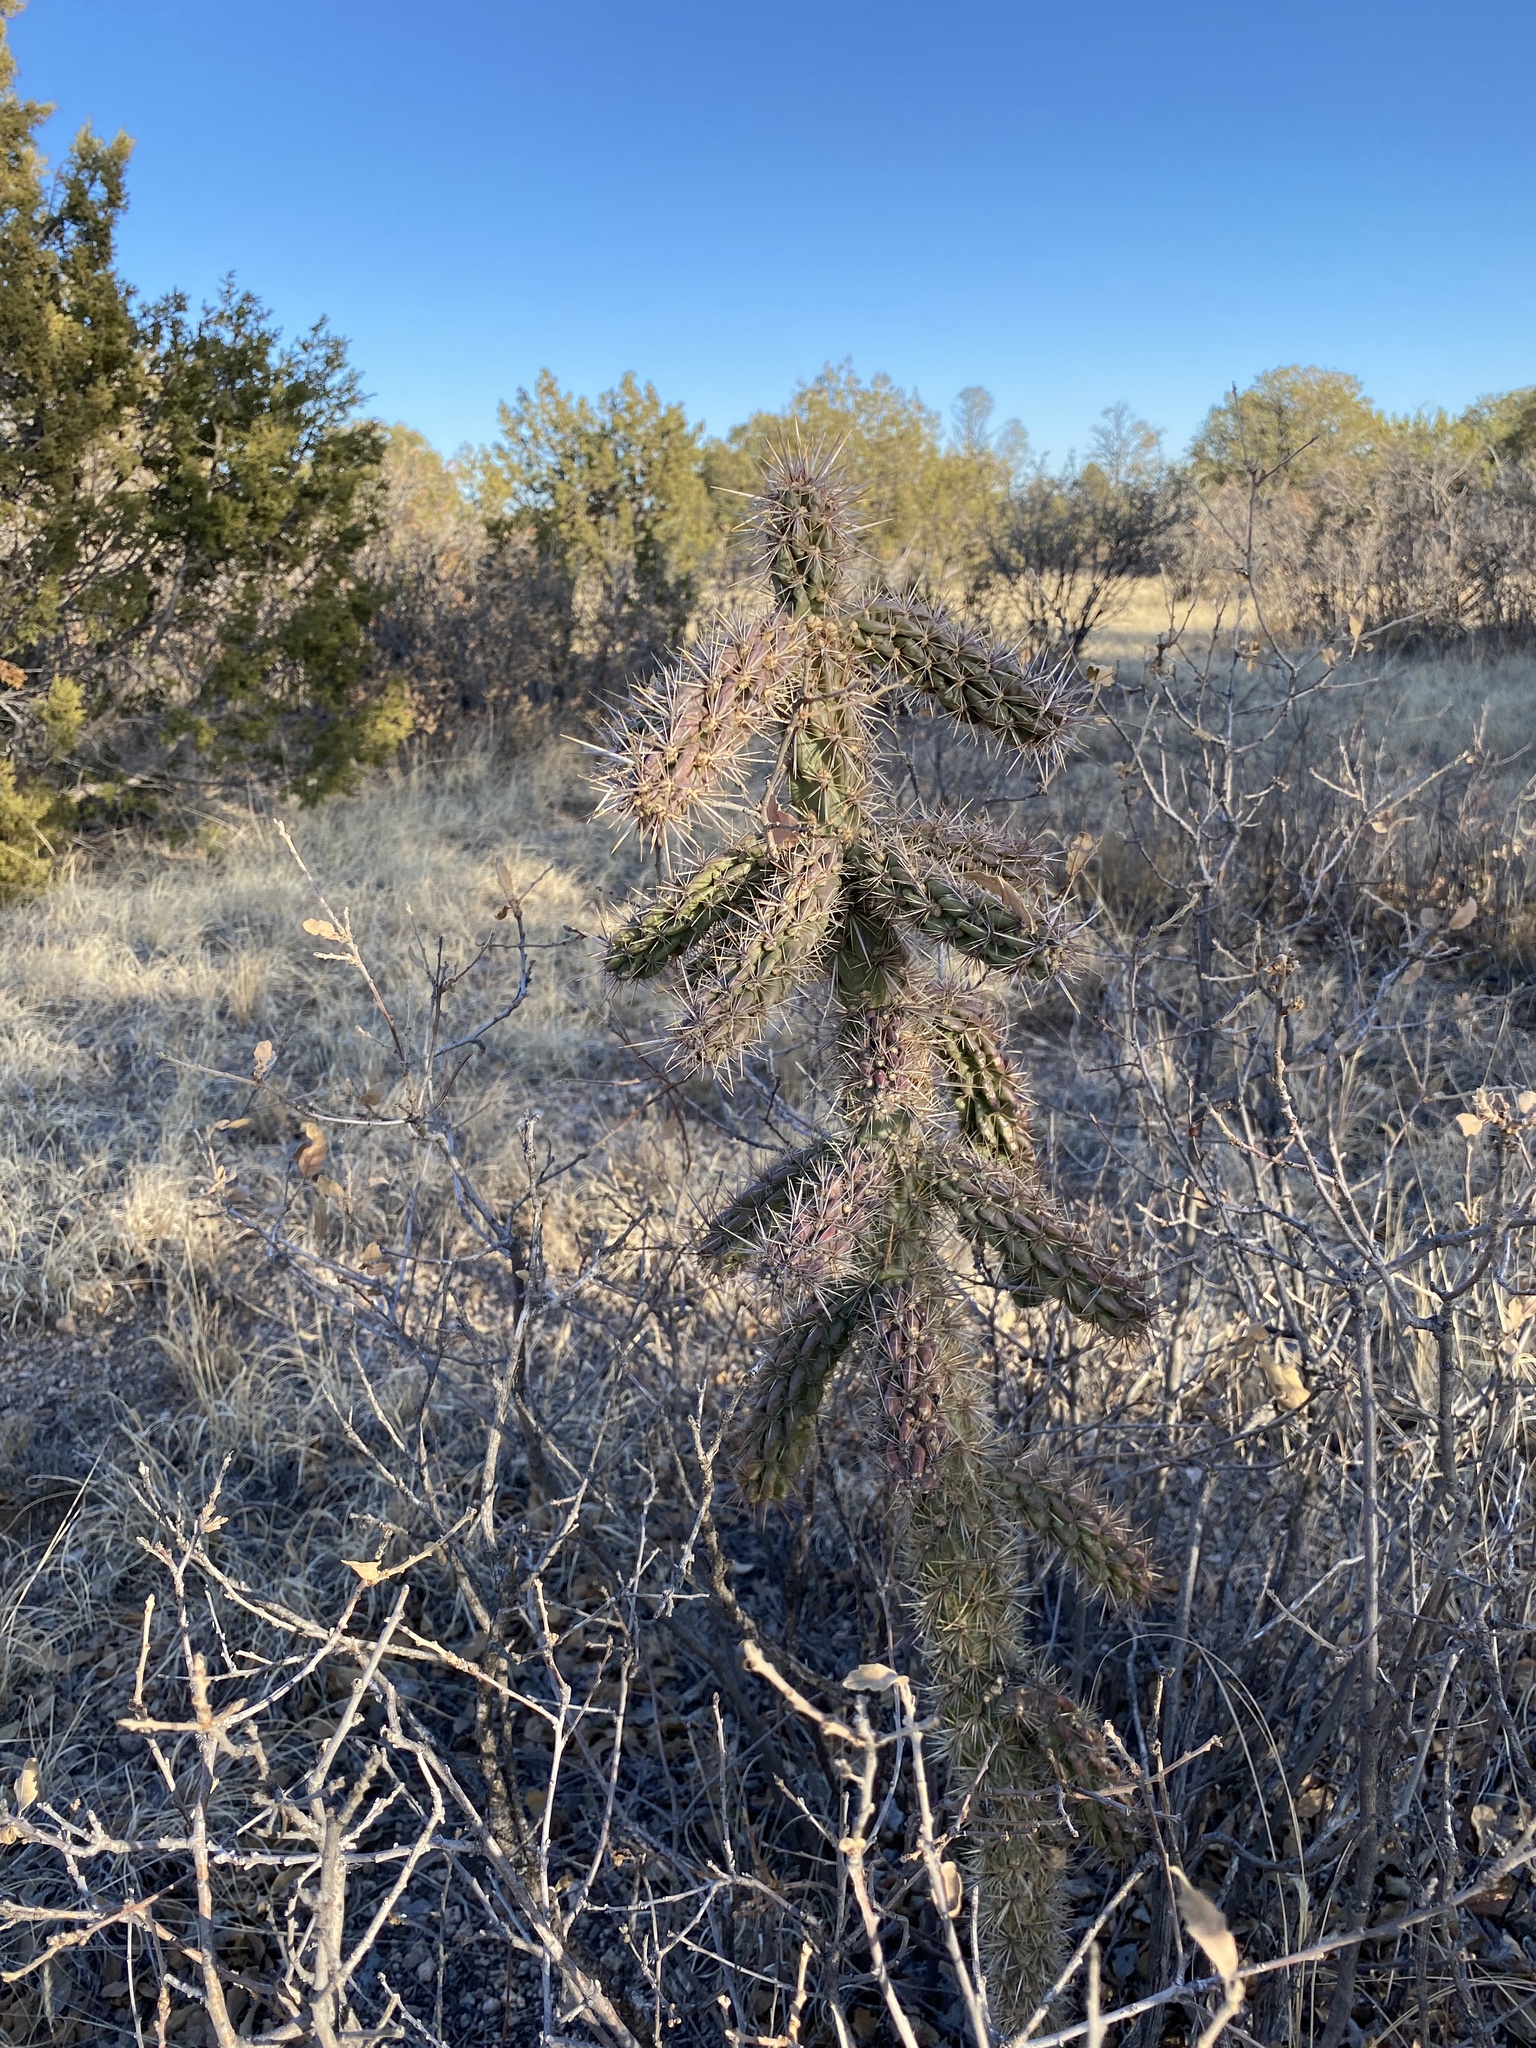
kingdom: Plantae
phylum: Tracheophyta
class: Magnoliopsida
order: Caryophyllales
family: Cactaceae
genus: Cylindropuntia
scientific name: Cylindropuntia imbricata
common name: Candelabrum cactus
